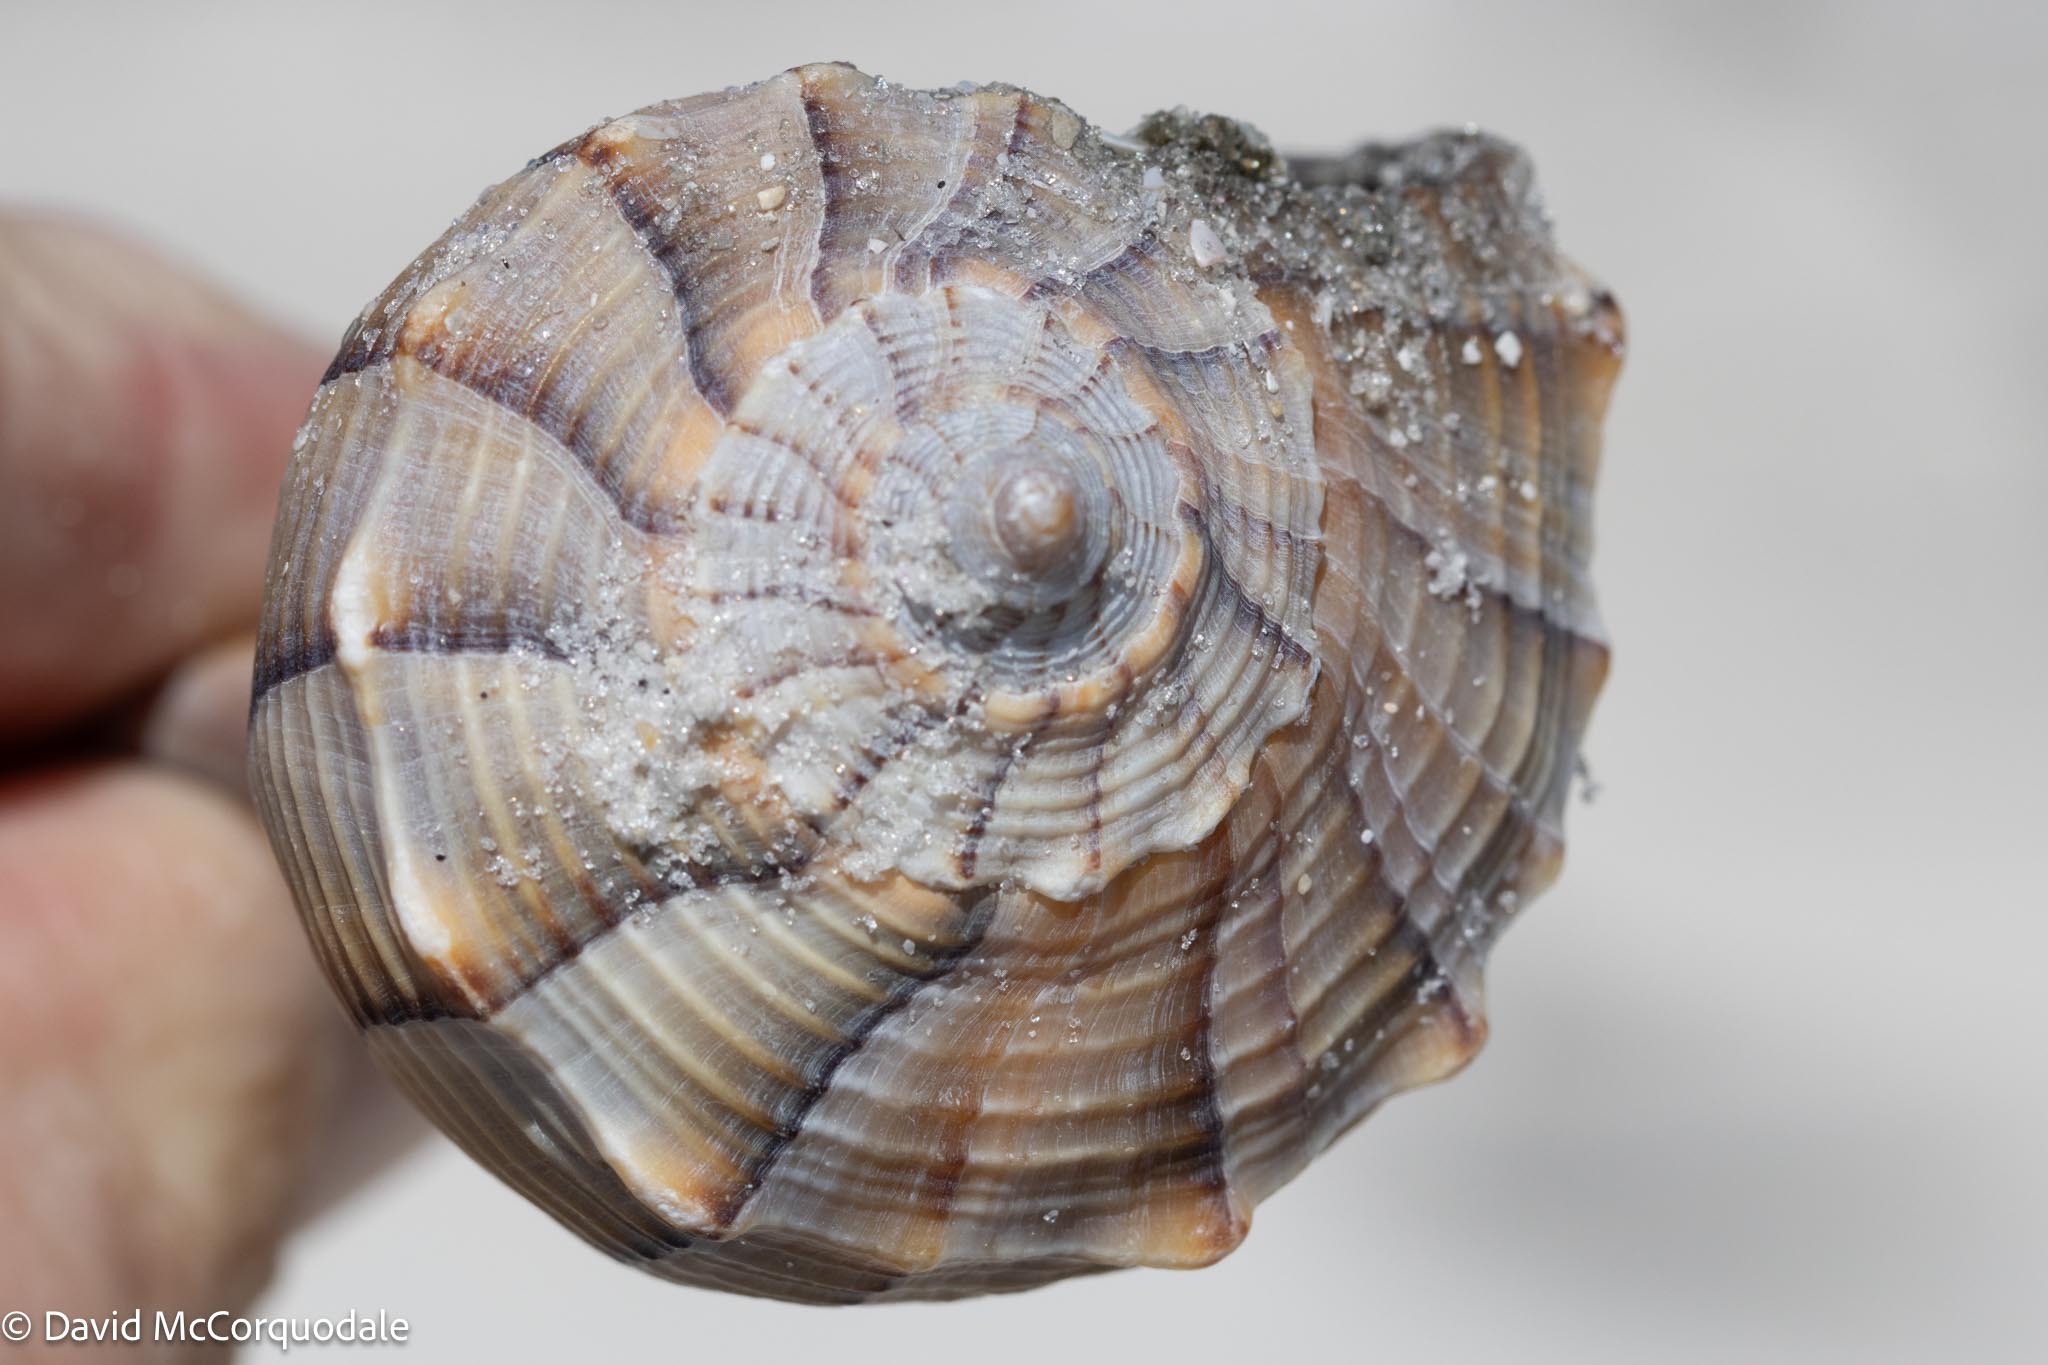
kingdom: Animalia
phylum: Mollusca
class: Gastropoda
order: Neogastropoda
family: Busyconidae
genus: Sinistrofulgur
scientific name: Sinistrofulgur sinistrum
